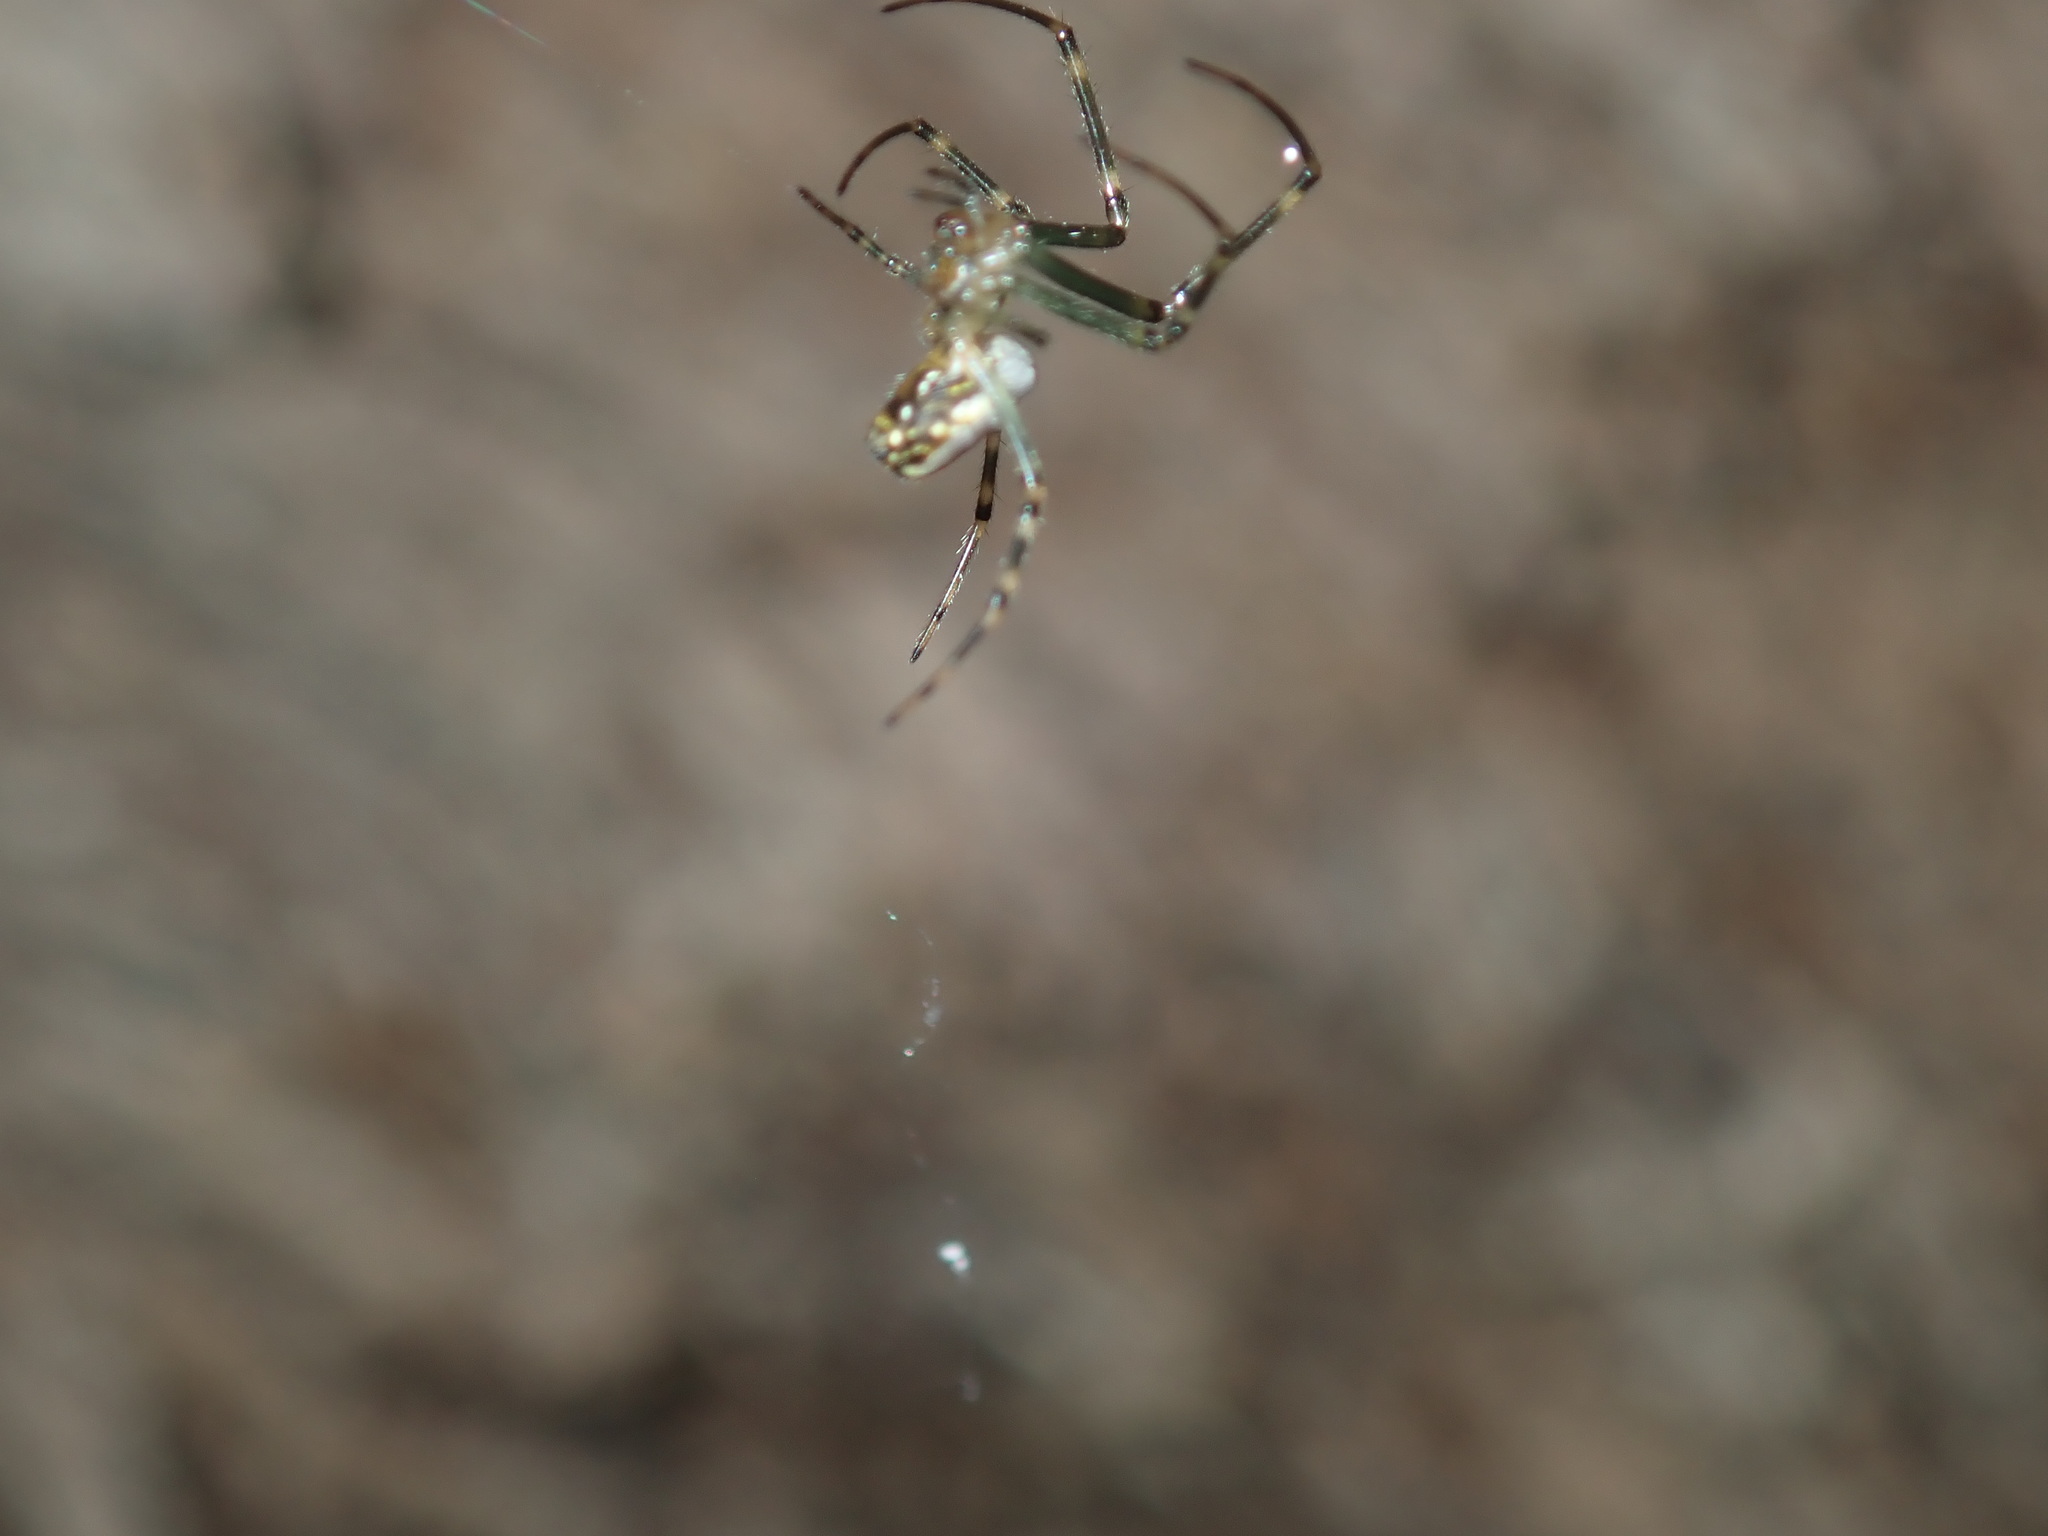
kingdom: Animalia
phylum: Arthropoda
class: Arachnida
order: Araneae
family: Tetragnathidae
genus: Leucauge
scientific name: Leucauge dromedaria
